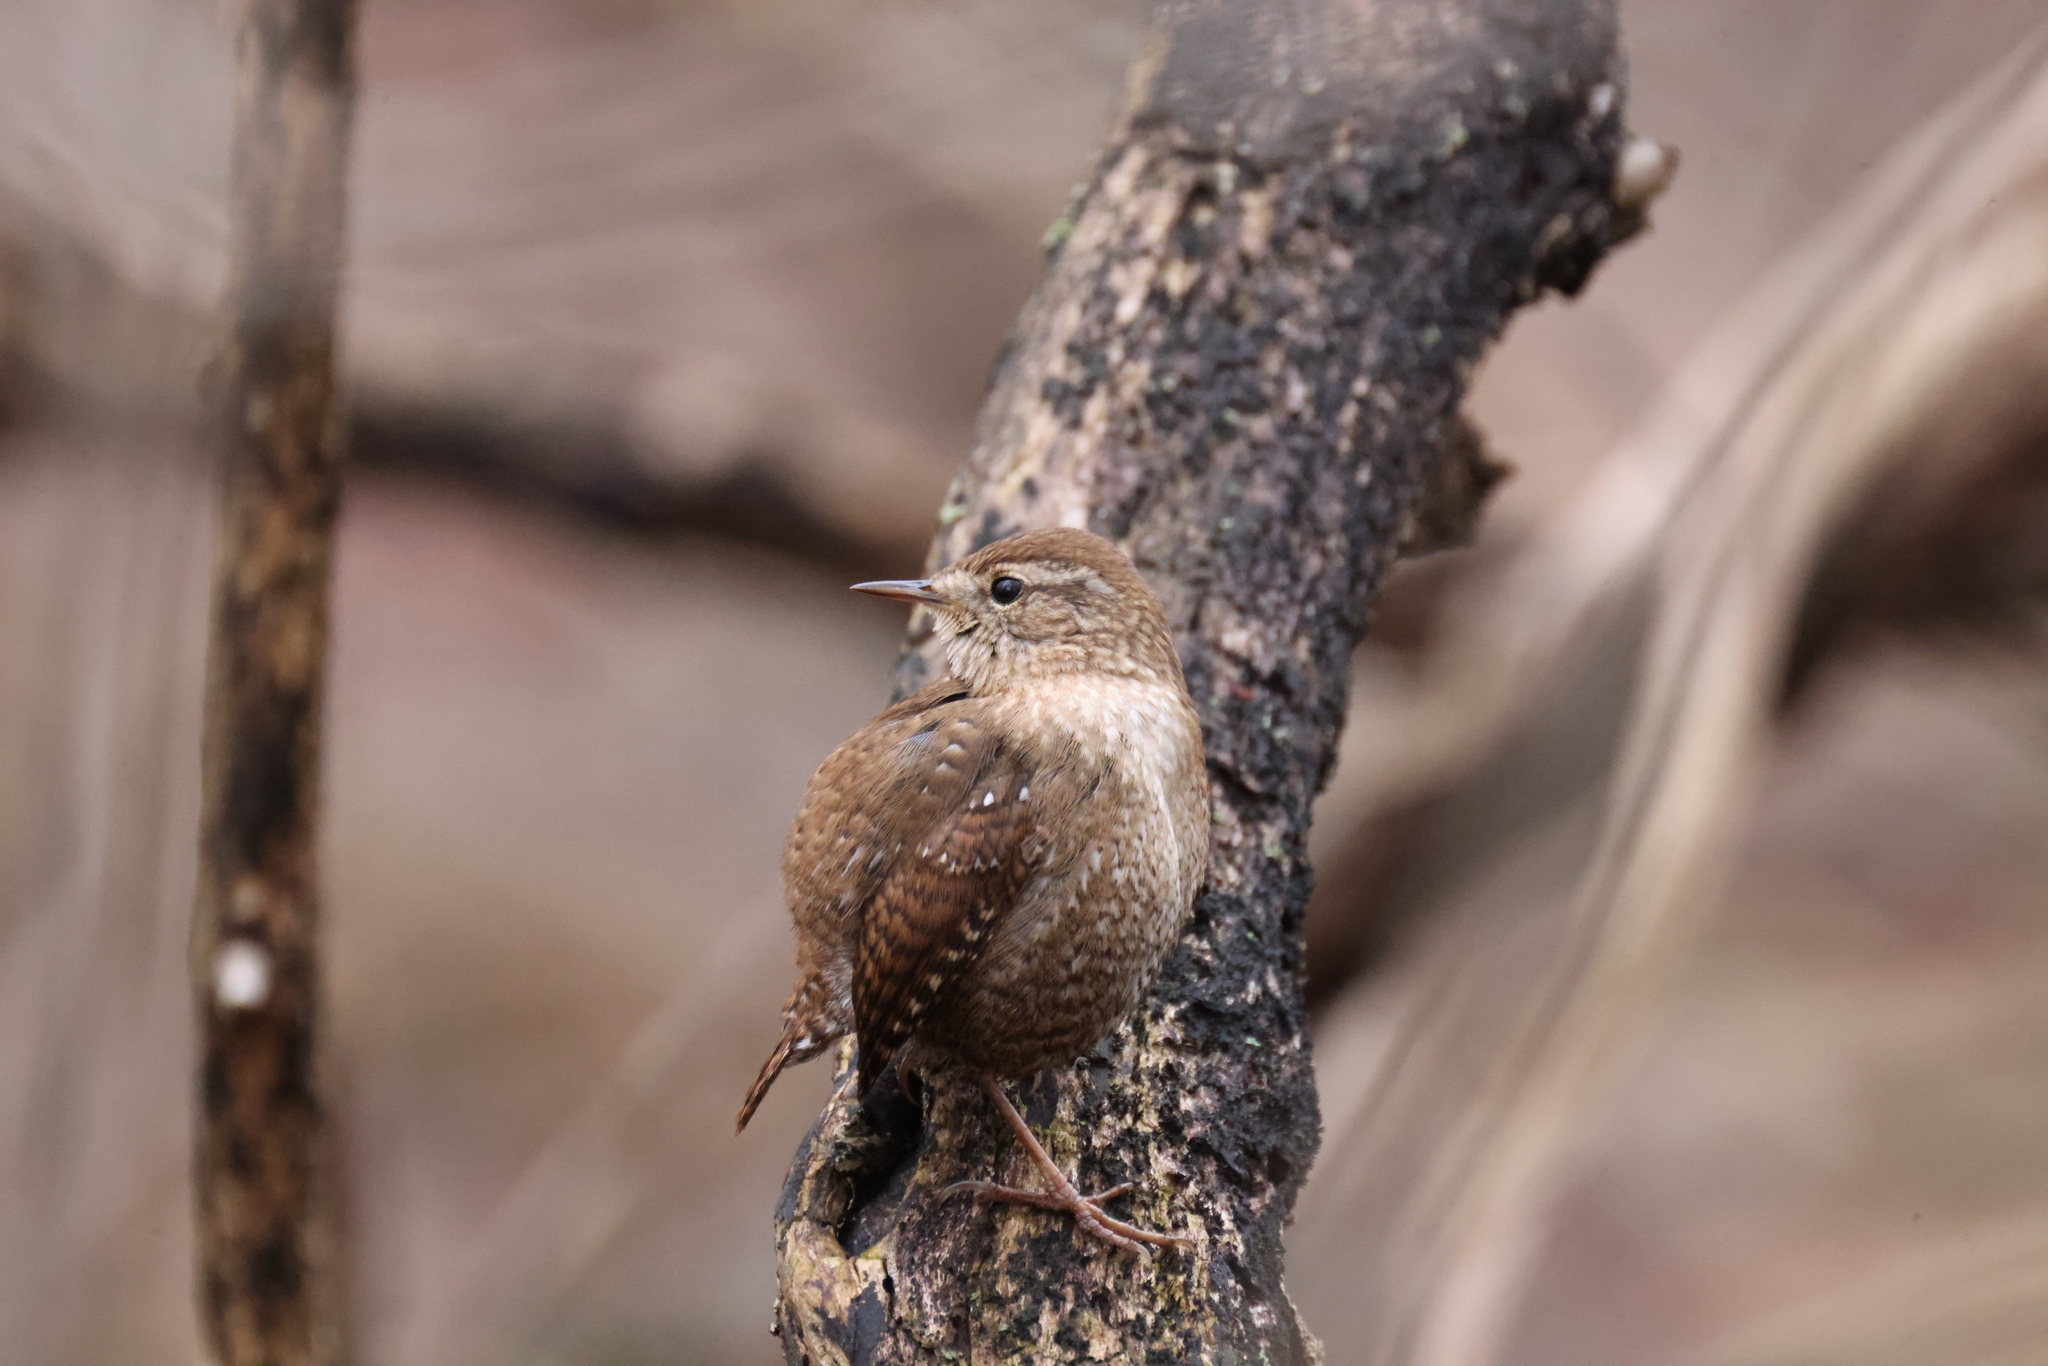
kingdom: Animalia
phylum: Chordata
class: Aves
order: Passeriformes
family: Troglodytidae
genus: Troglodytes
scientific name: Troglodytes hiemalis
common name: Winter wren
